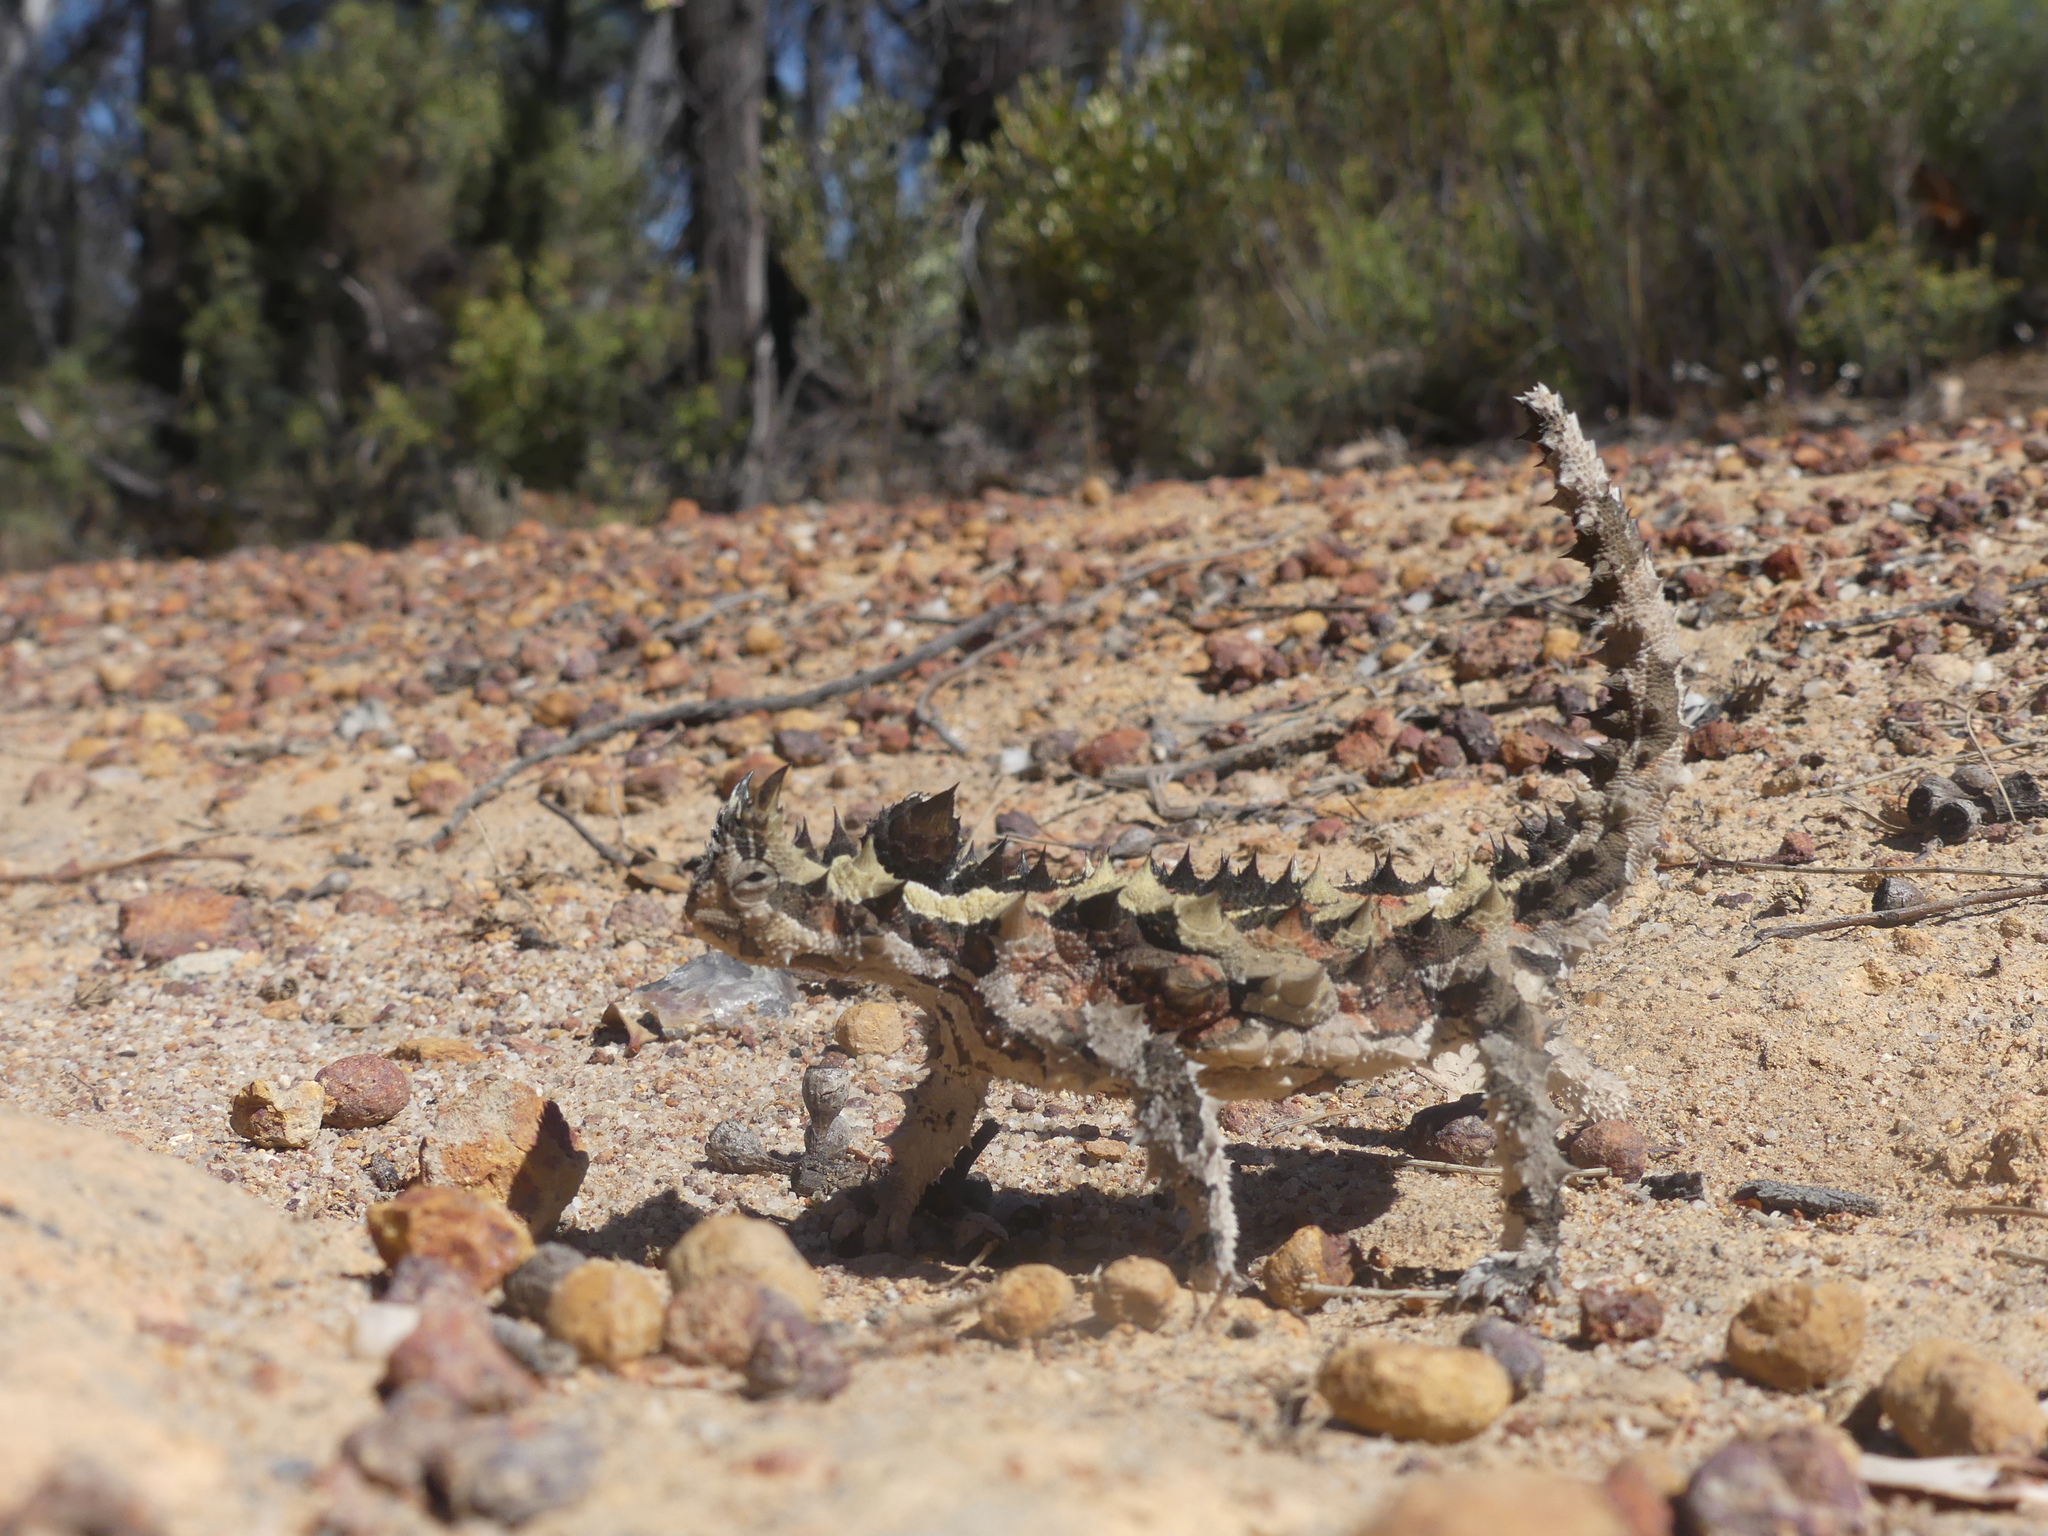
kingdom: Animalia
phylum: Chordata
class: Squamata
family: Agamidae
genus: Moloch
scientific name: Moloch horridus
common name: Mountain devil
